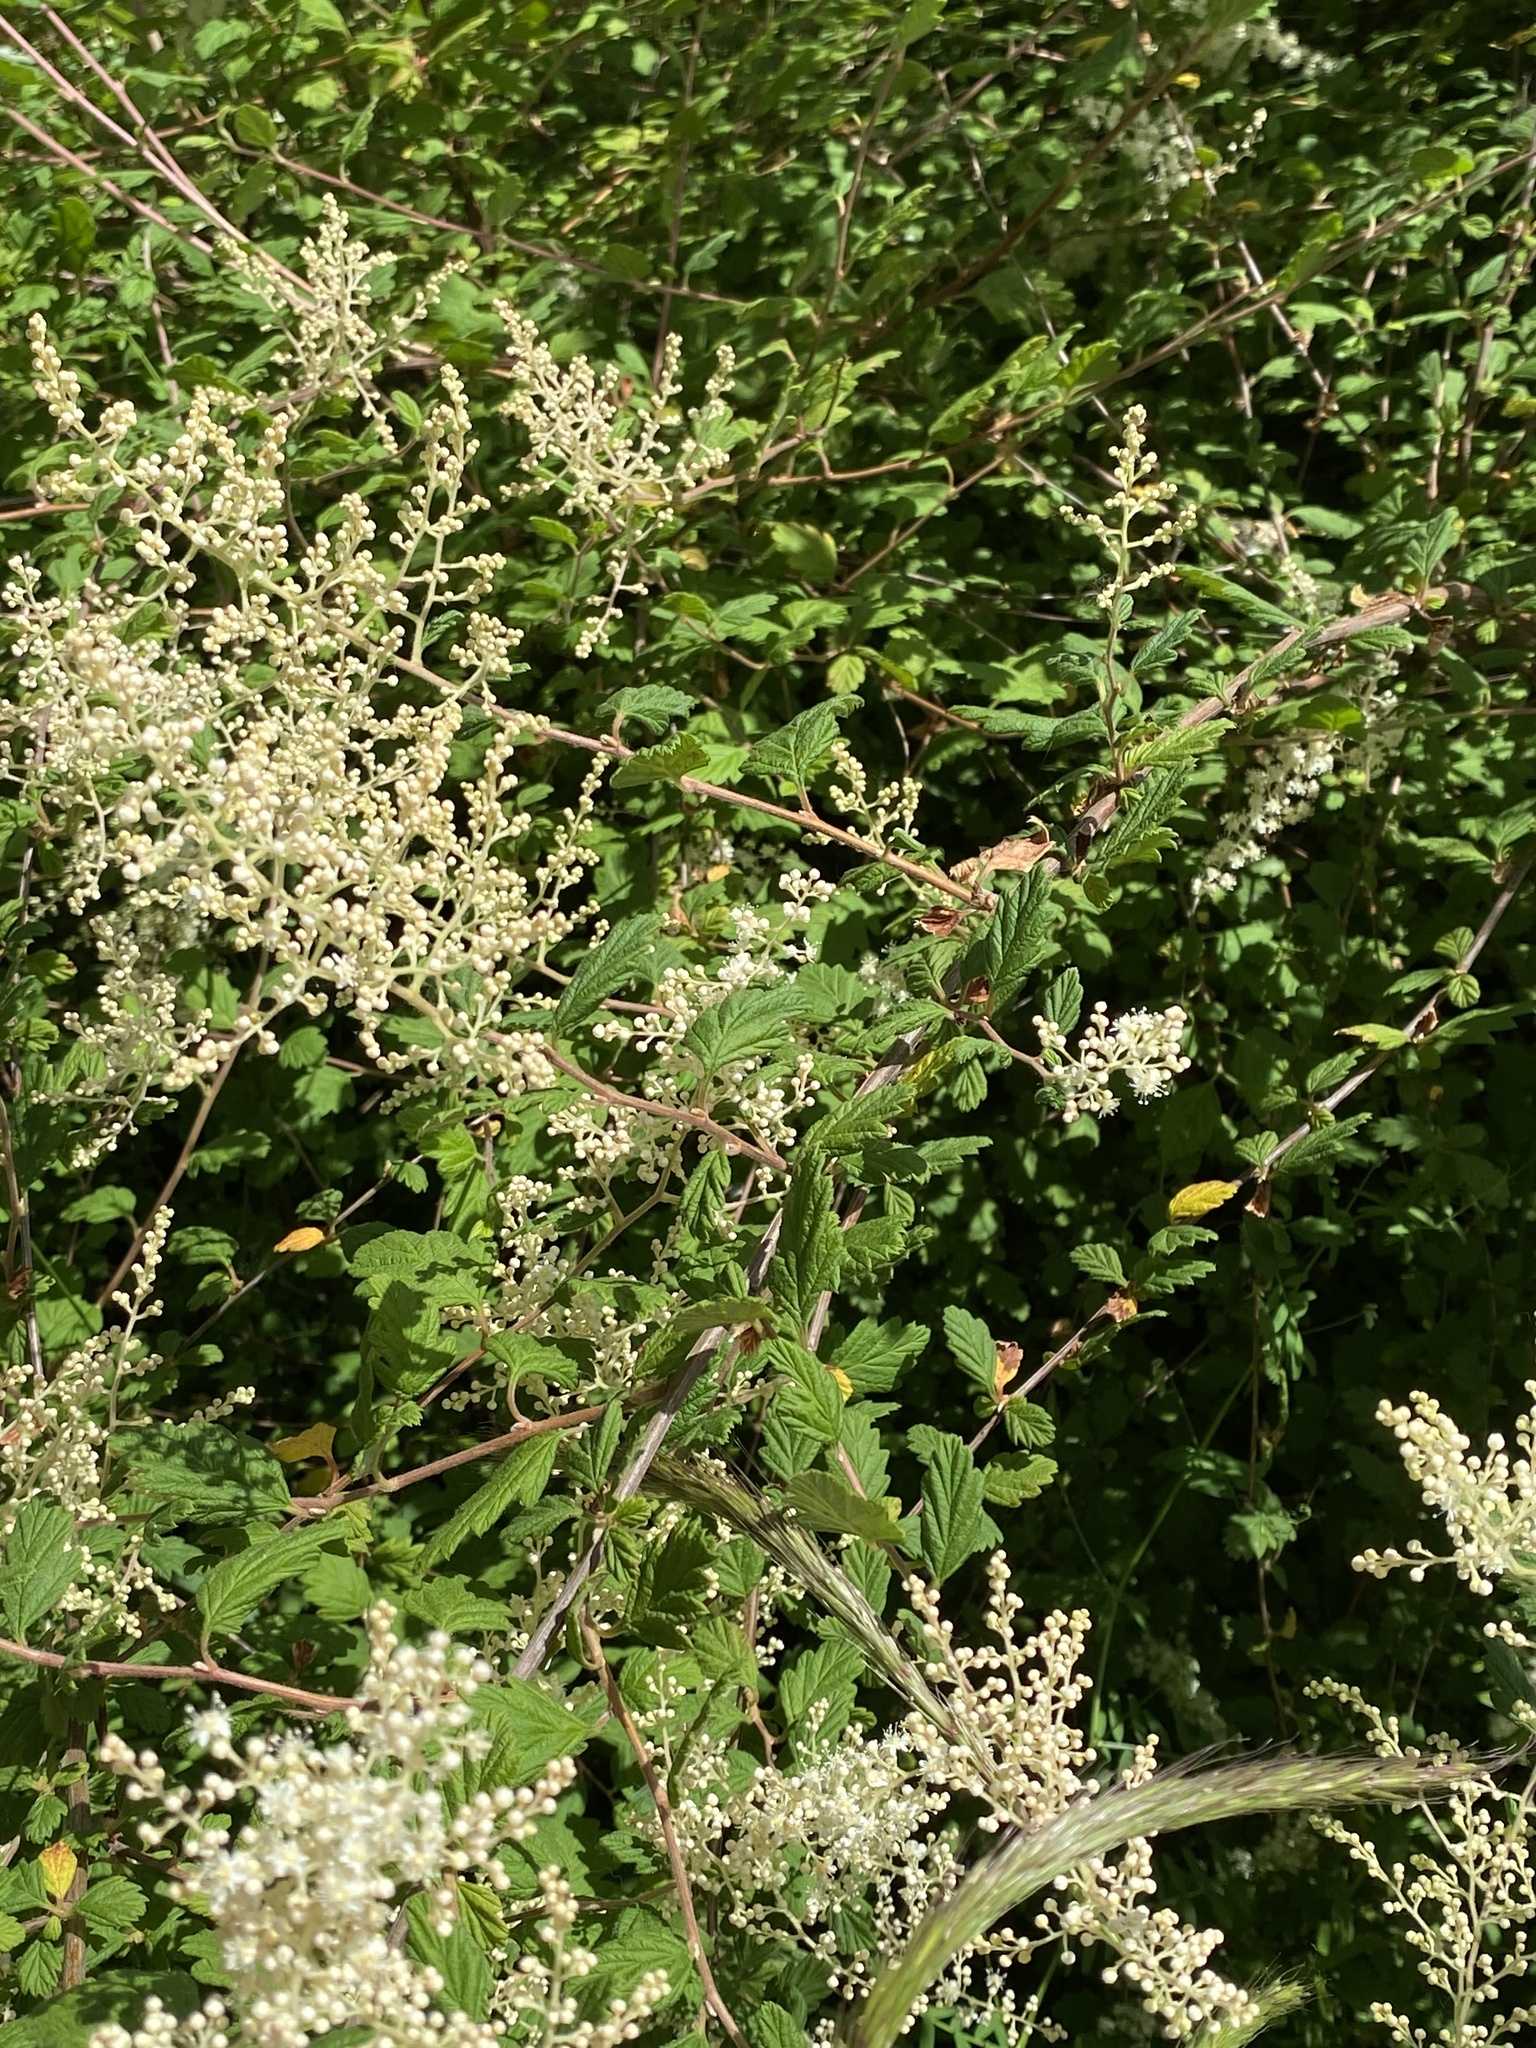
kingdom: Plantae
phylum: Tracheophyta
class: Magnoliopsida
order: Rosales
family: Rosaceae
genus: Holodiscus
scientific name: Holodiscus discolor
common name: Oceanspray
